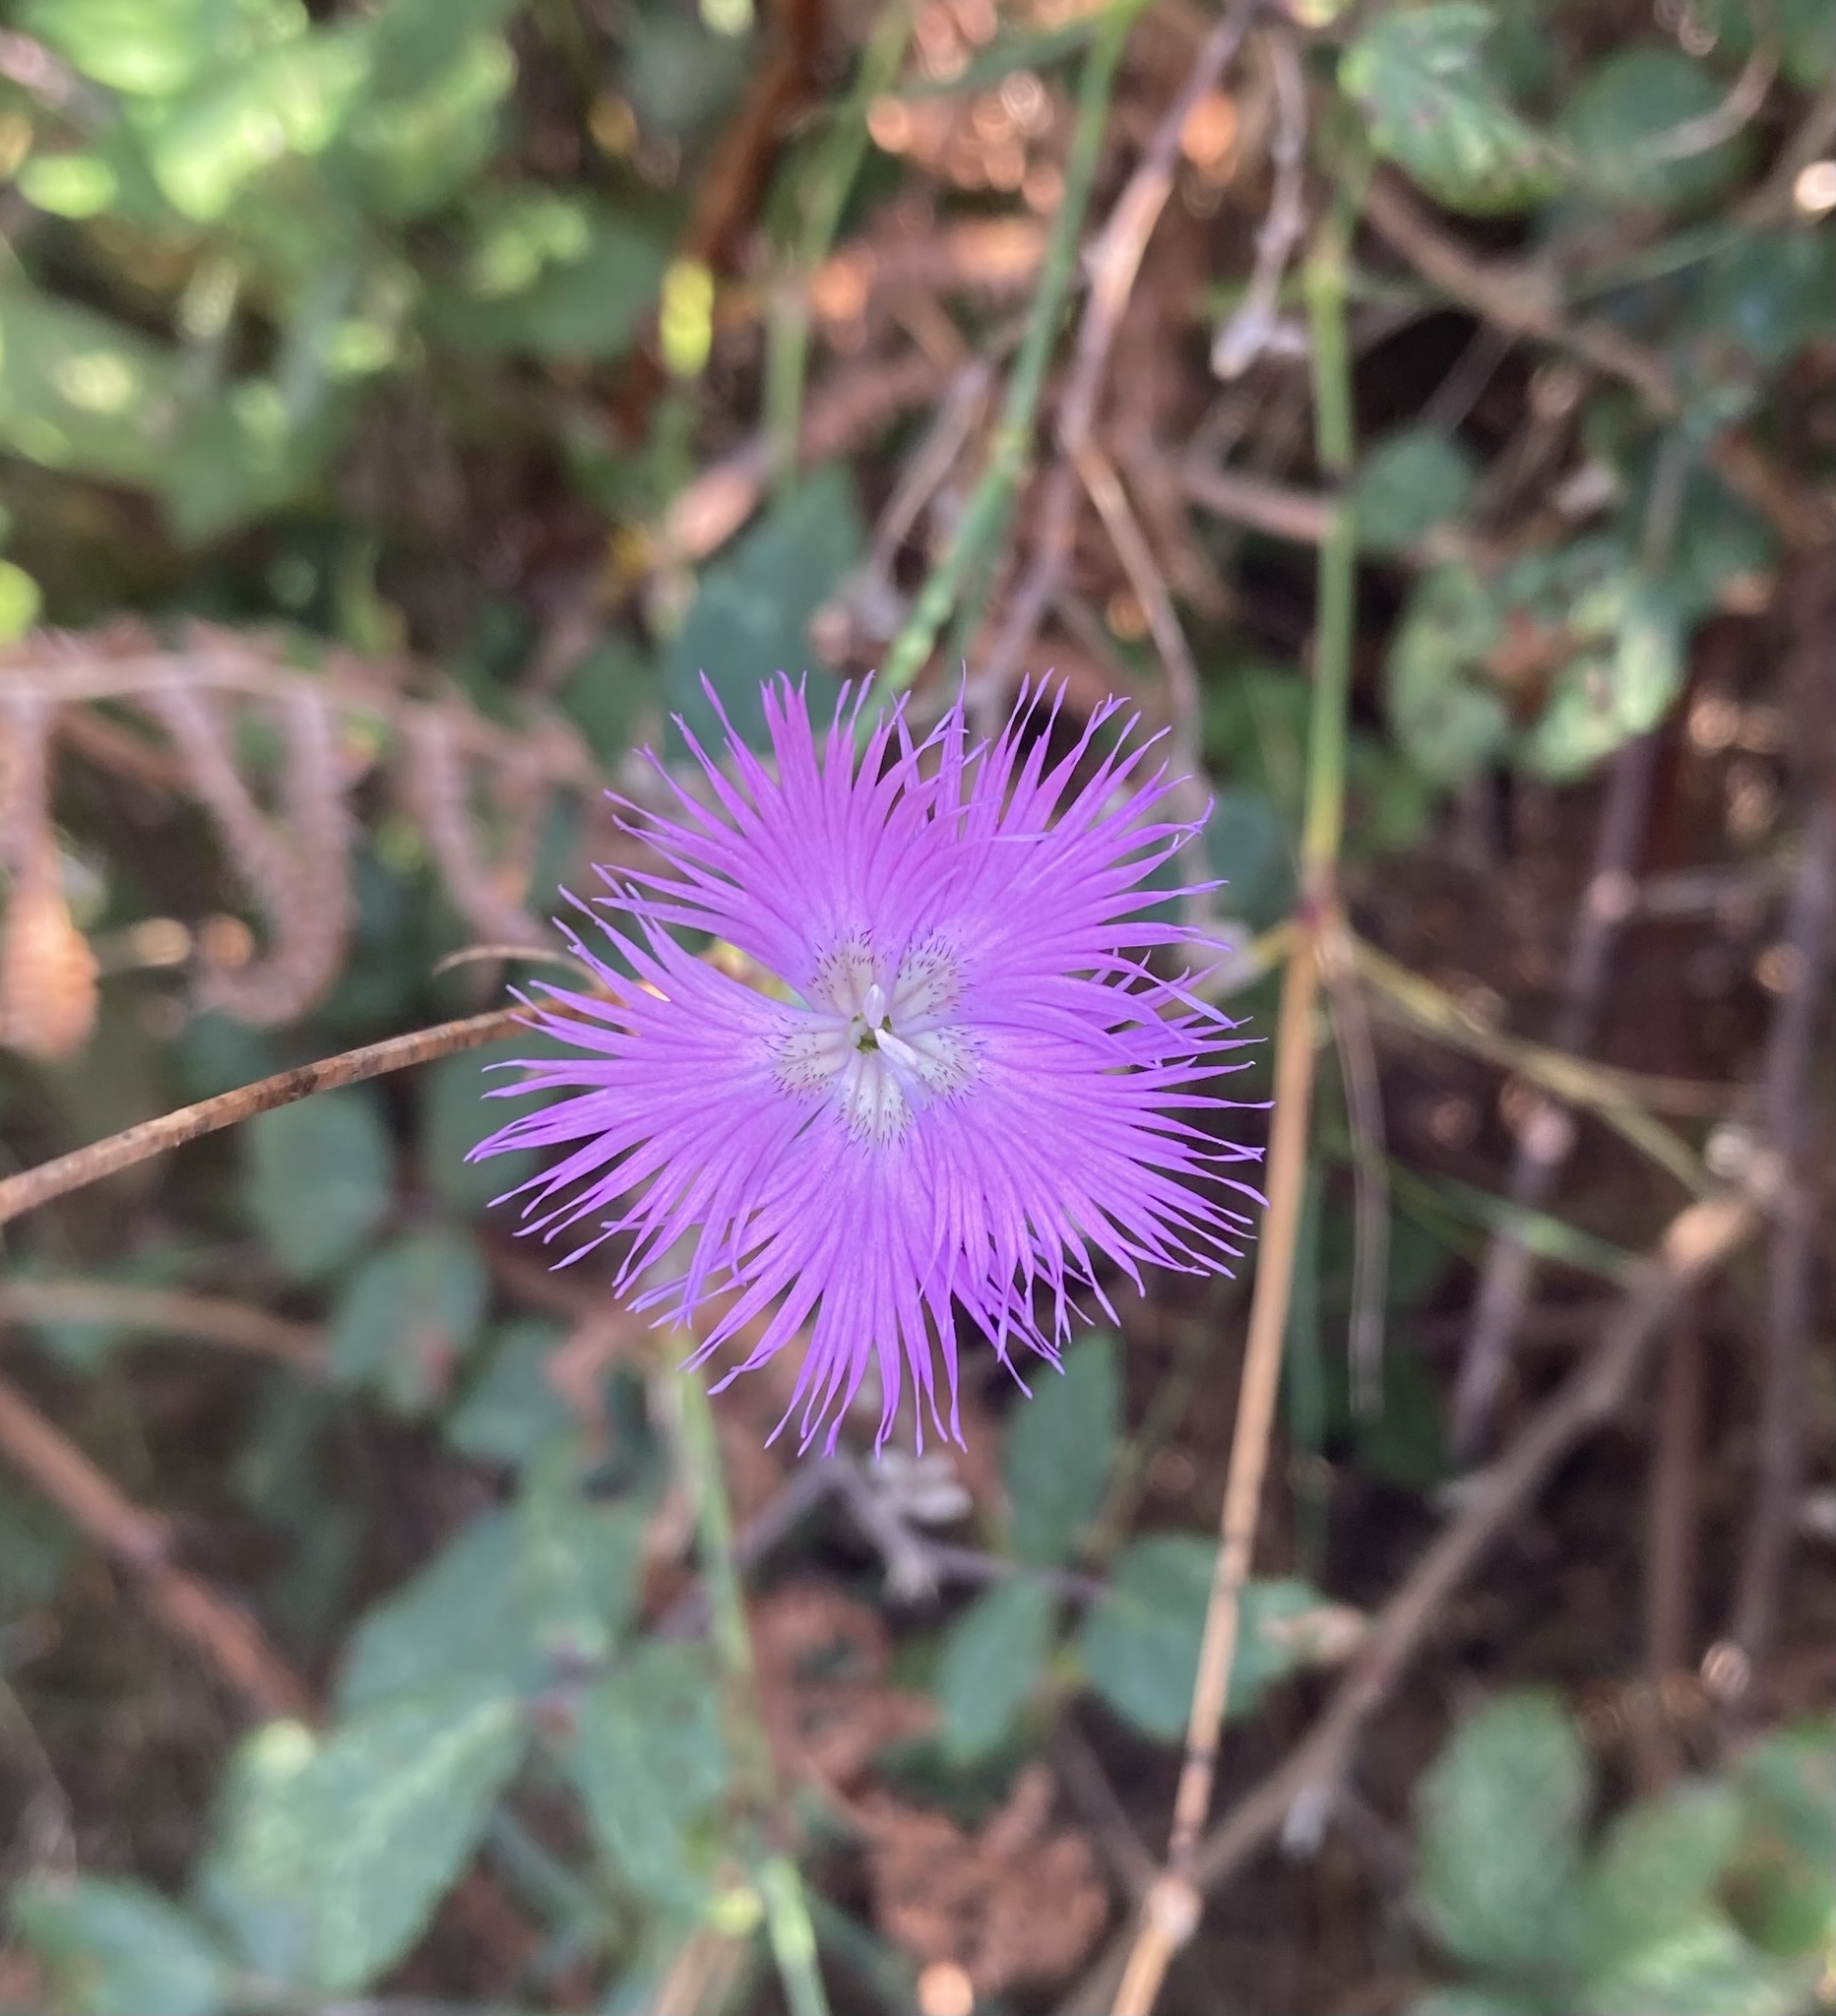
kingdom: Plantae
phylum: Tracheophyta
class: Magnoliopsida
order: Caryophyllales
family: Caryophyllaceae
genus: Dianthus
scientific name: Dianthus hyssopifolius
